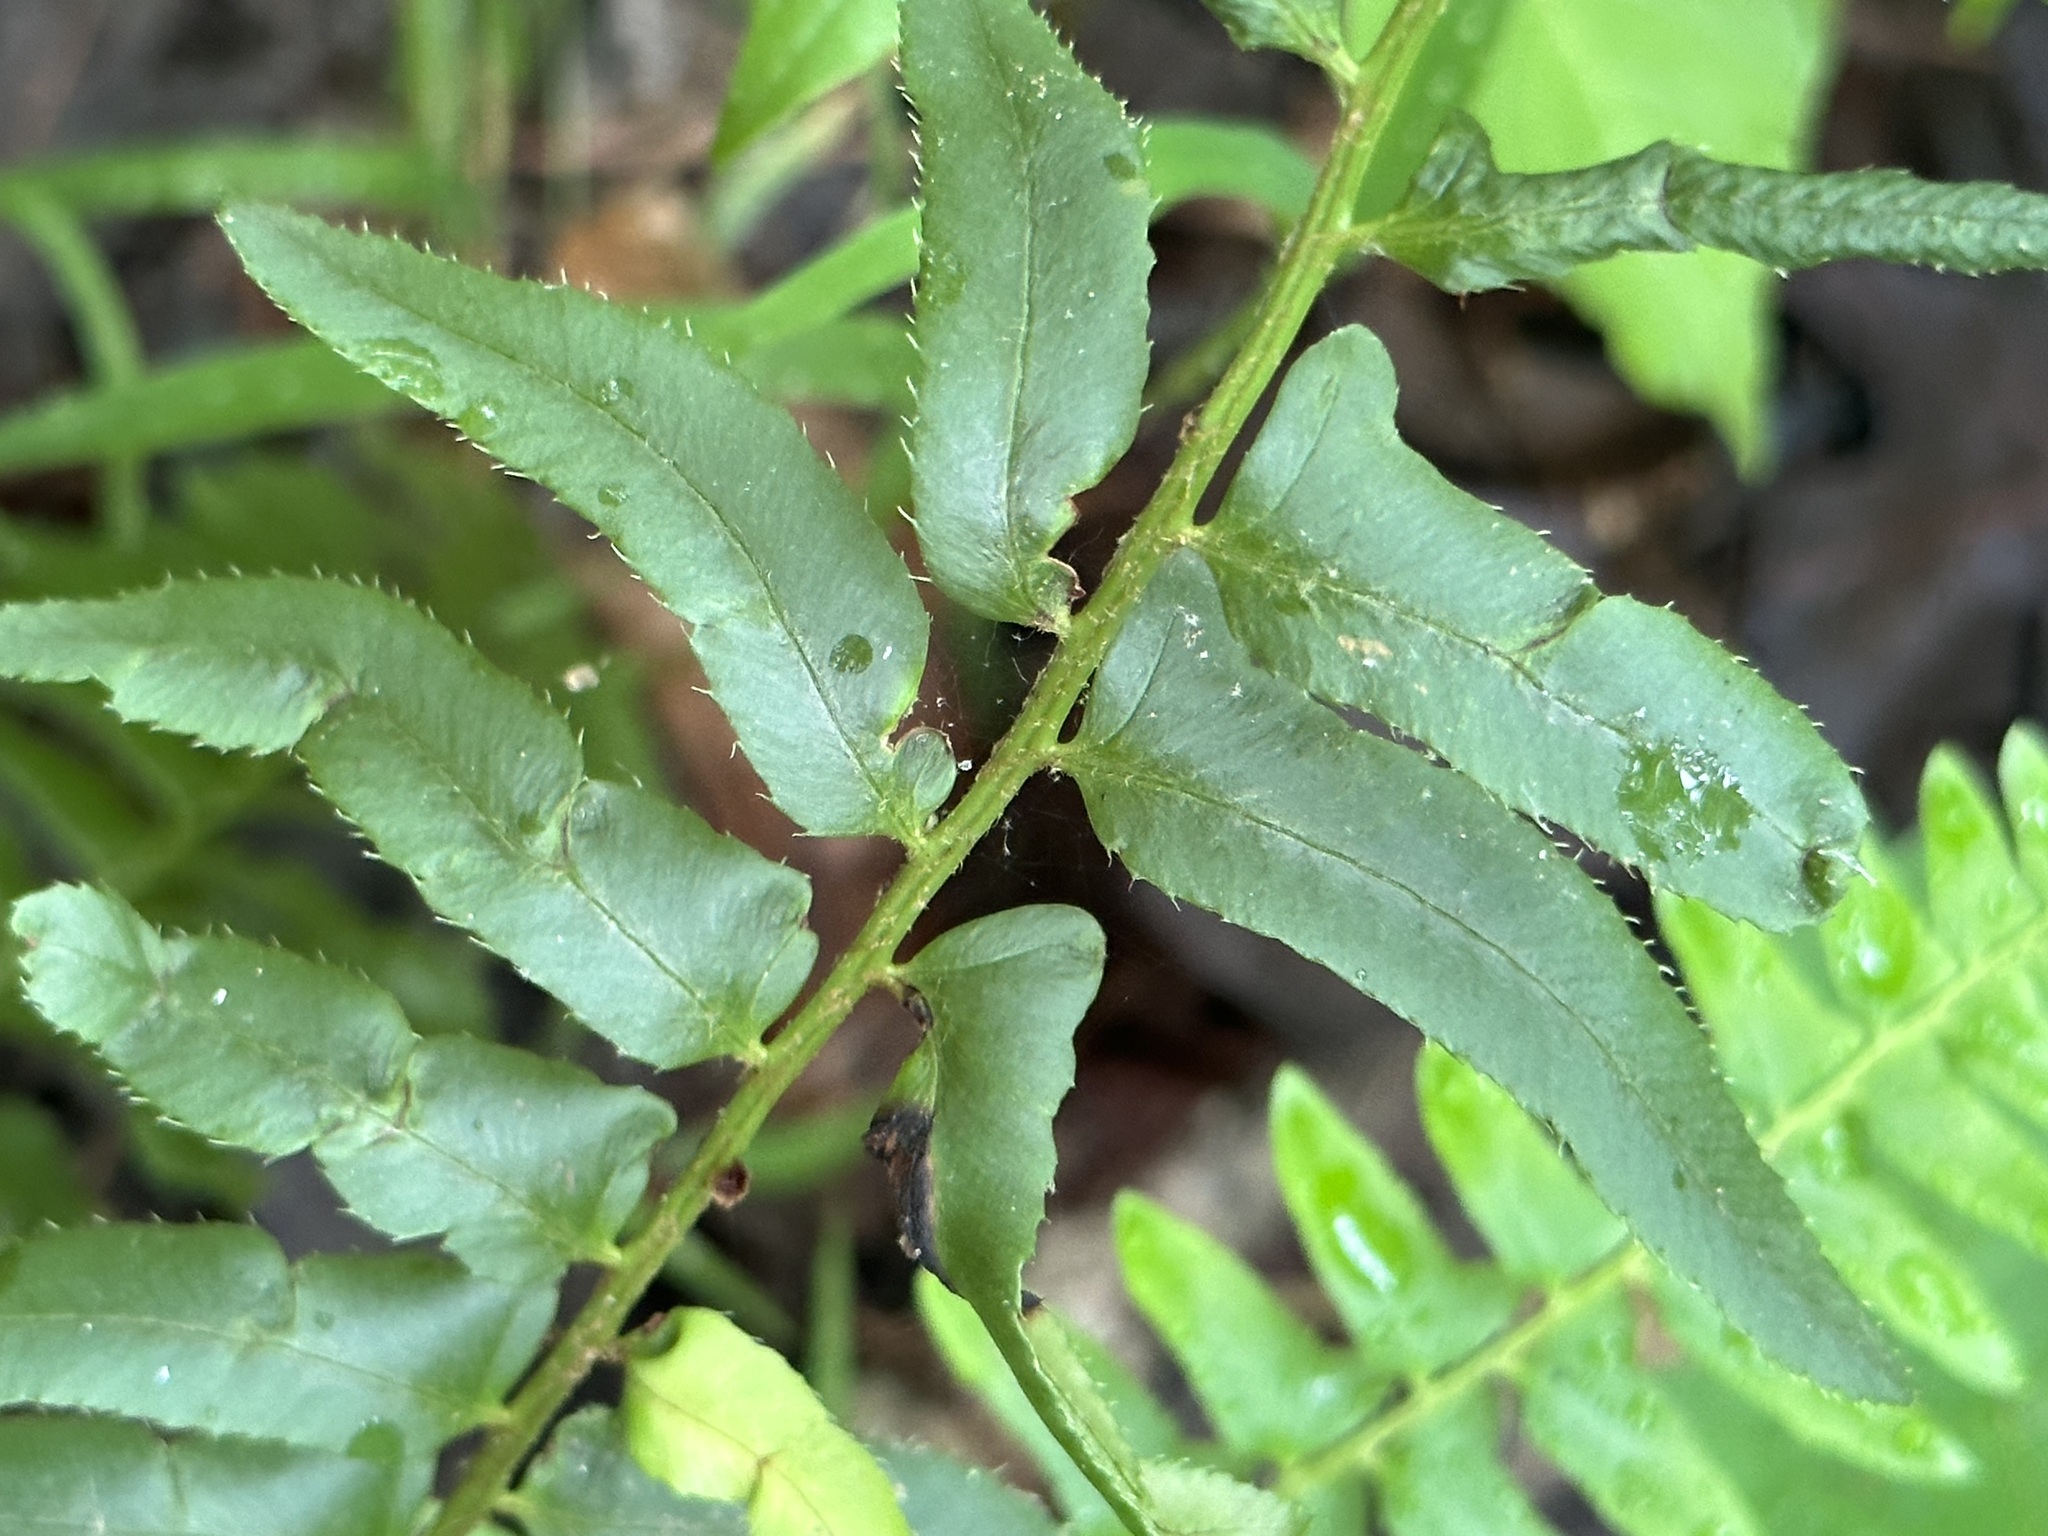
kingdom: Plantae
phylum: Tracheophyta
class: Polypodiopsida
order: Polypodiales
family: Dryopteridaceae
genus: Polystichum
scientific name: Polystichum acrostichoides
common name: Christmas fern
